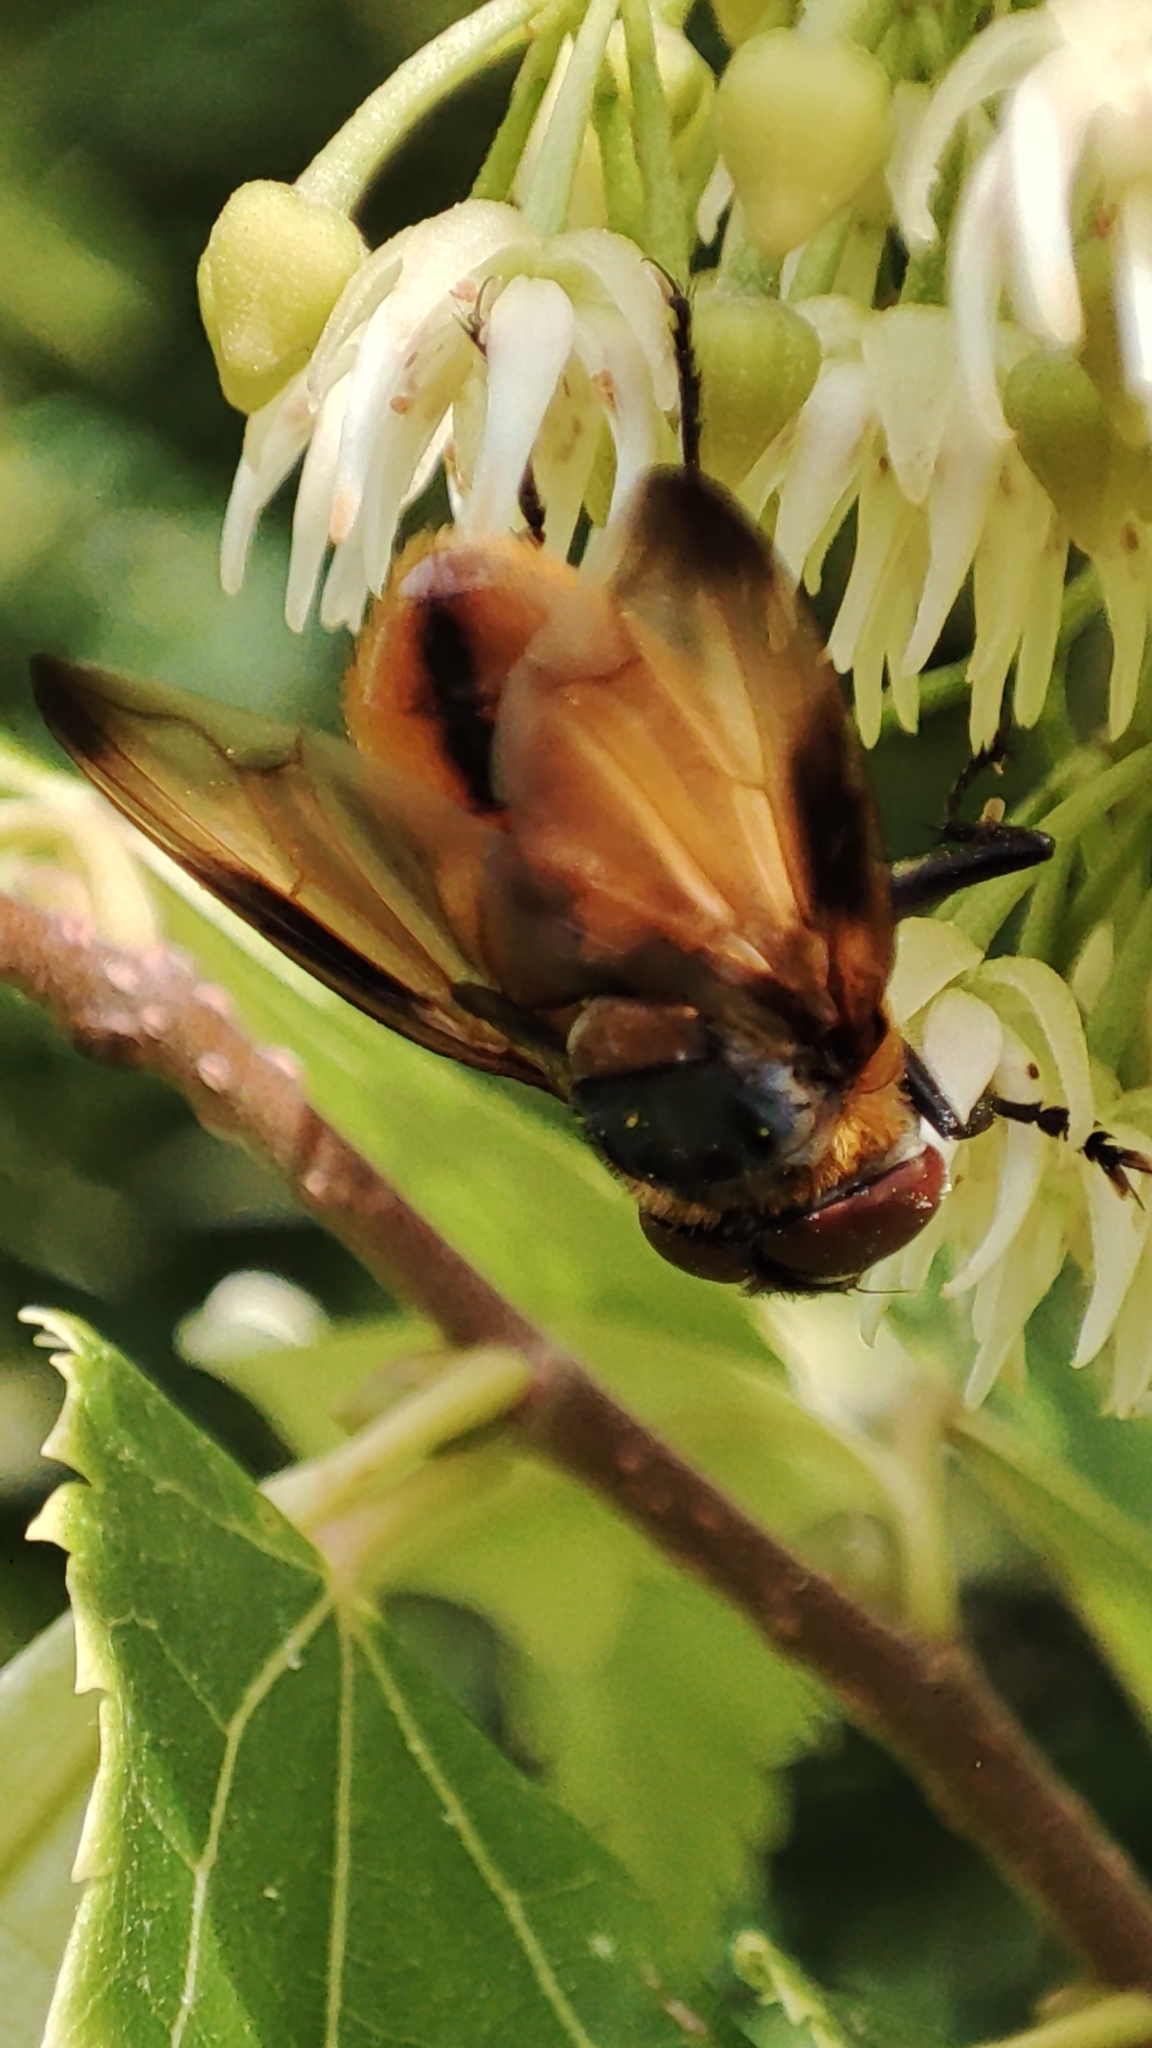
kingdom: Animalia
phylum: Arthropoda
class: Insecta
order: Diptera
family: Tachinidae
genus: Phasia
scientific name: Phasia hemiptera
